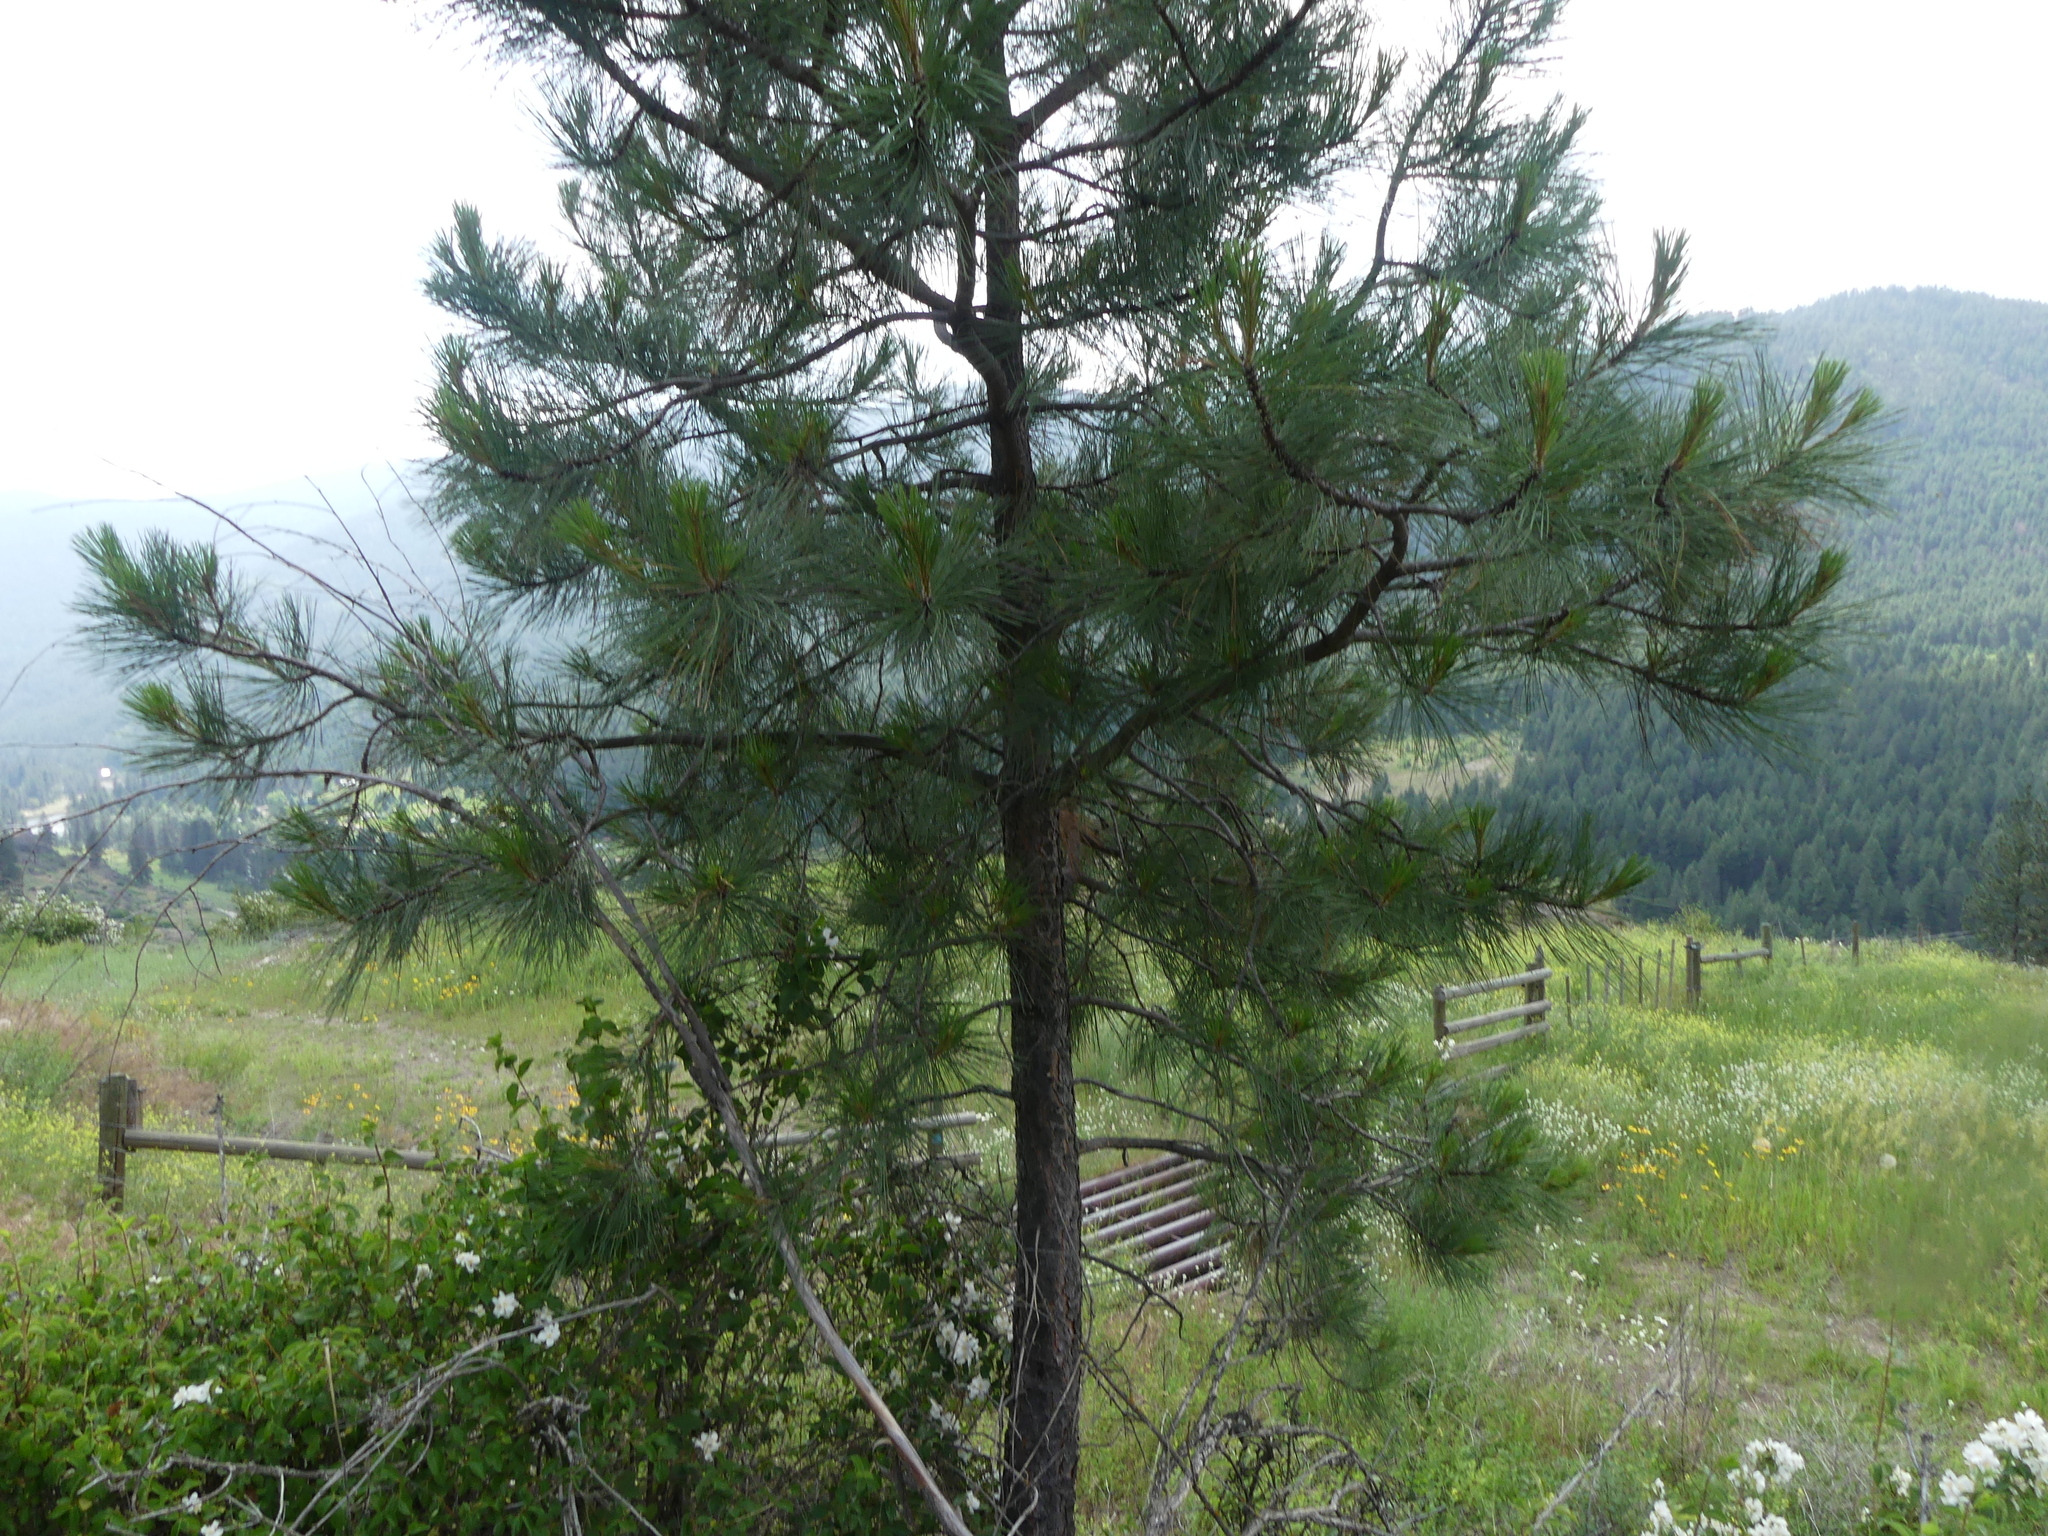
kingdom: Plantae
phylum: Tracheophyta
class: Pinopsida
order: Pinales
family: Pinaceae
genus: Pinus
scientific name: Pinus ponderosa
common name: Western yellow-pine
